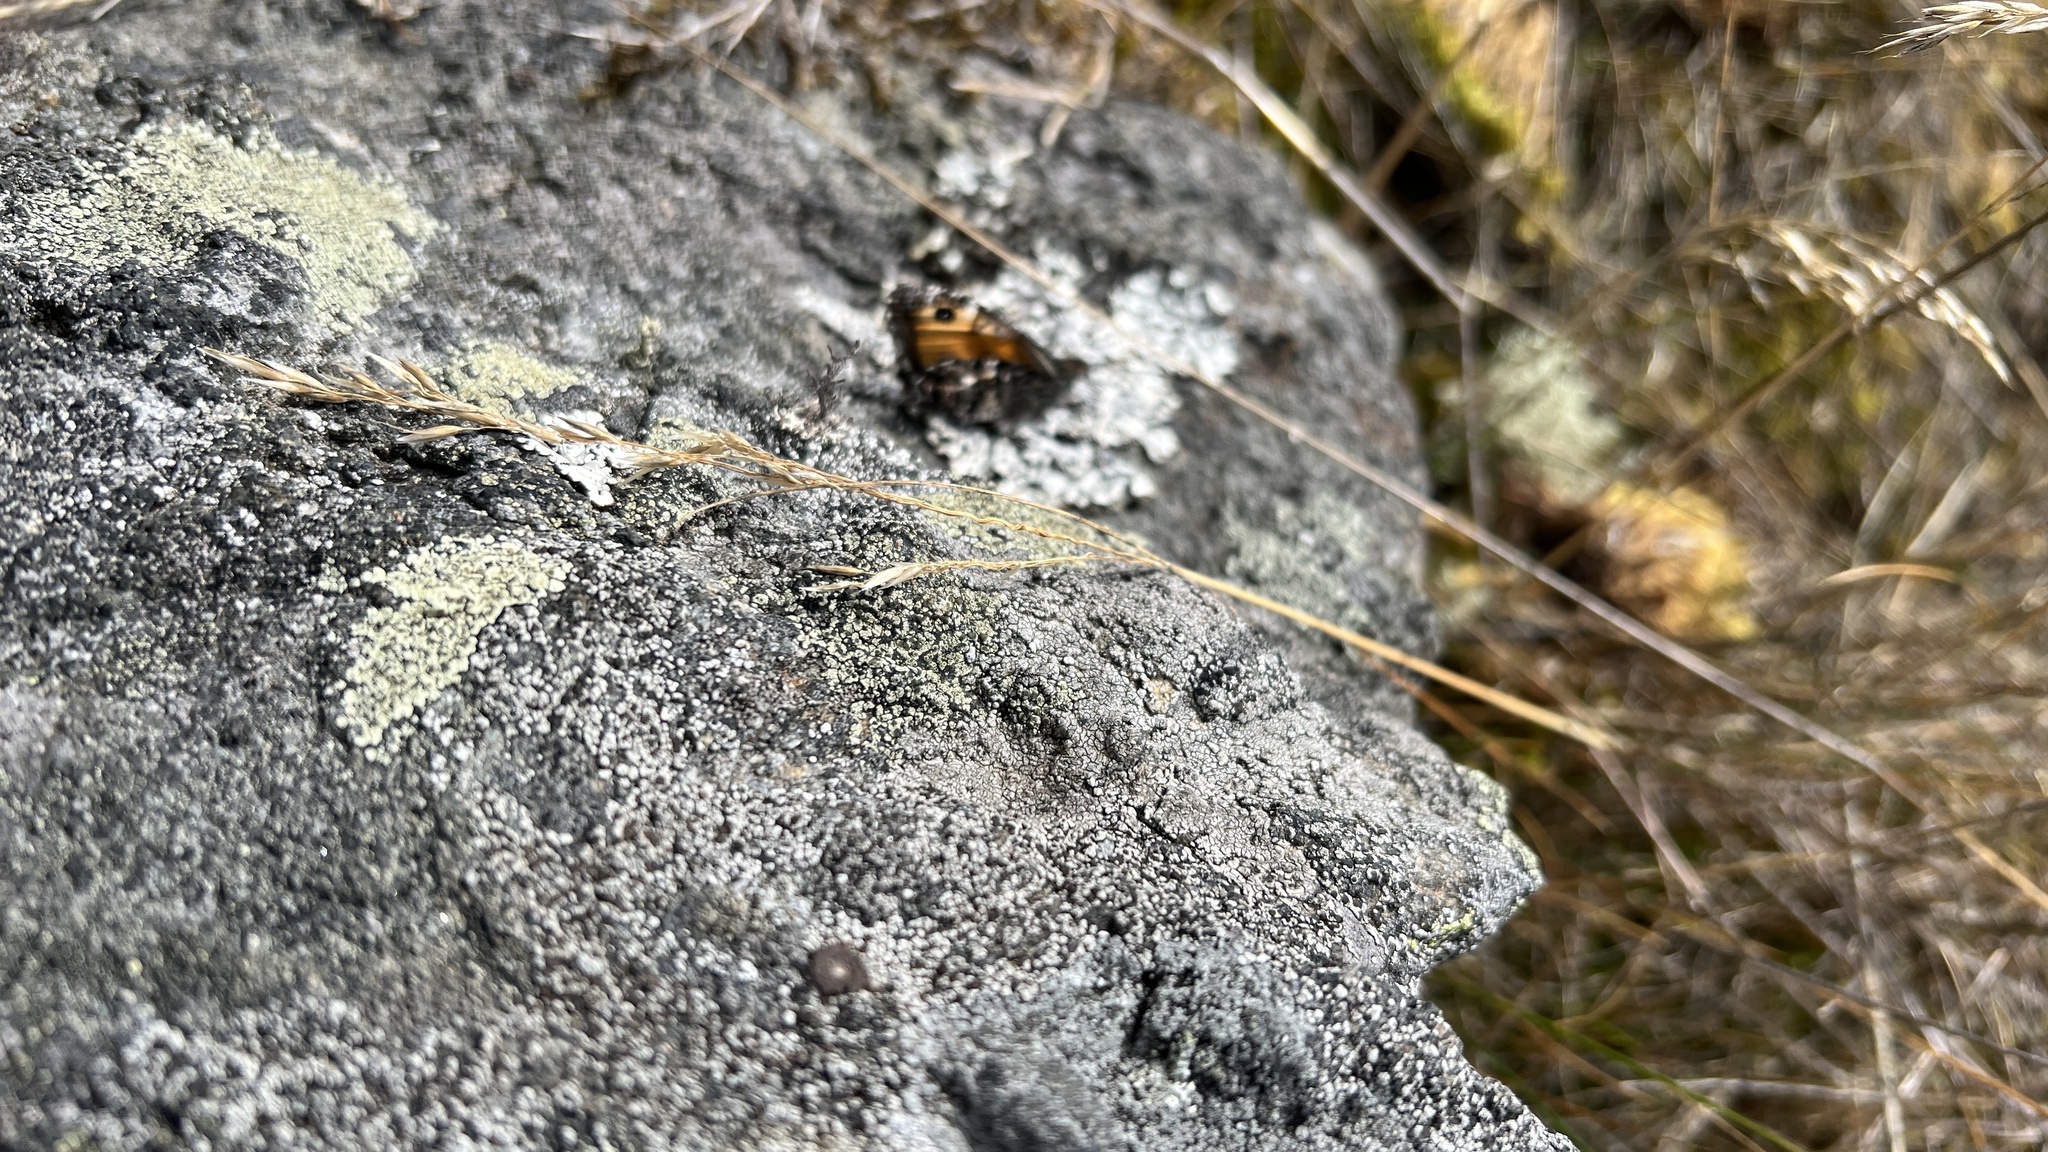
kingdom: Animalia
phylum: Arthropoda
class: Insecta
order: Lepidoptera
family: Nymphalidae
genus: Hipparchia
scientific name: Hipparchia semele
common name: Grayling
